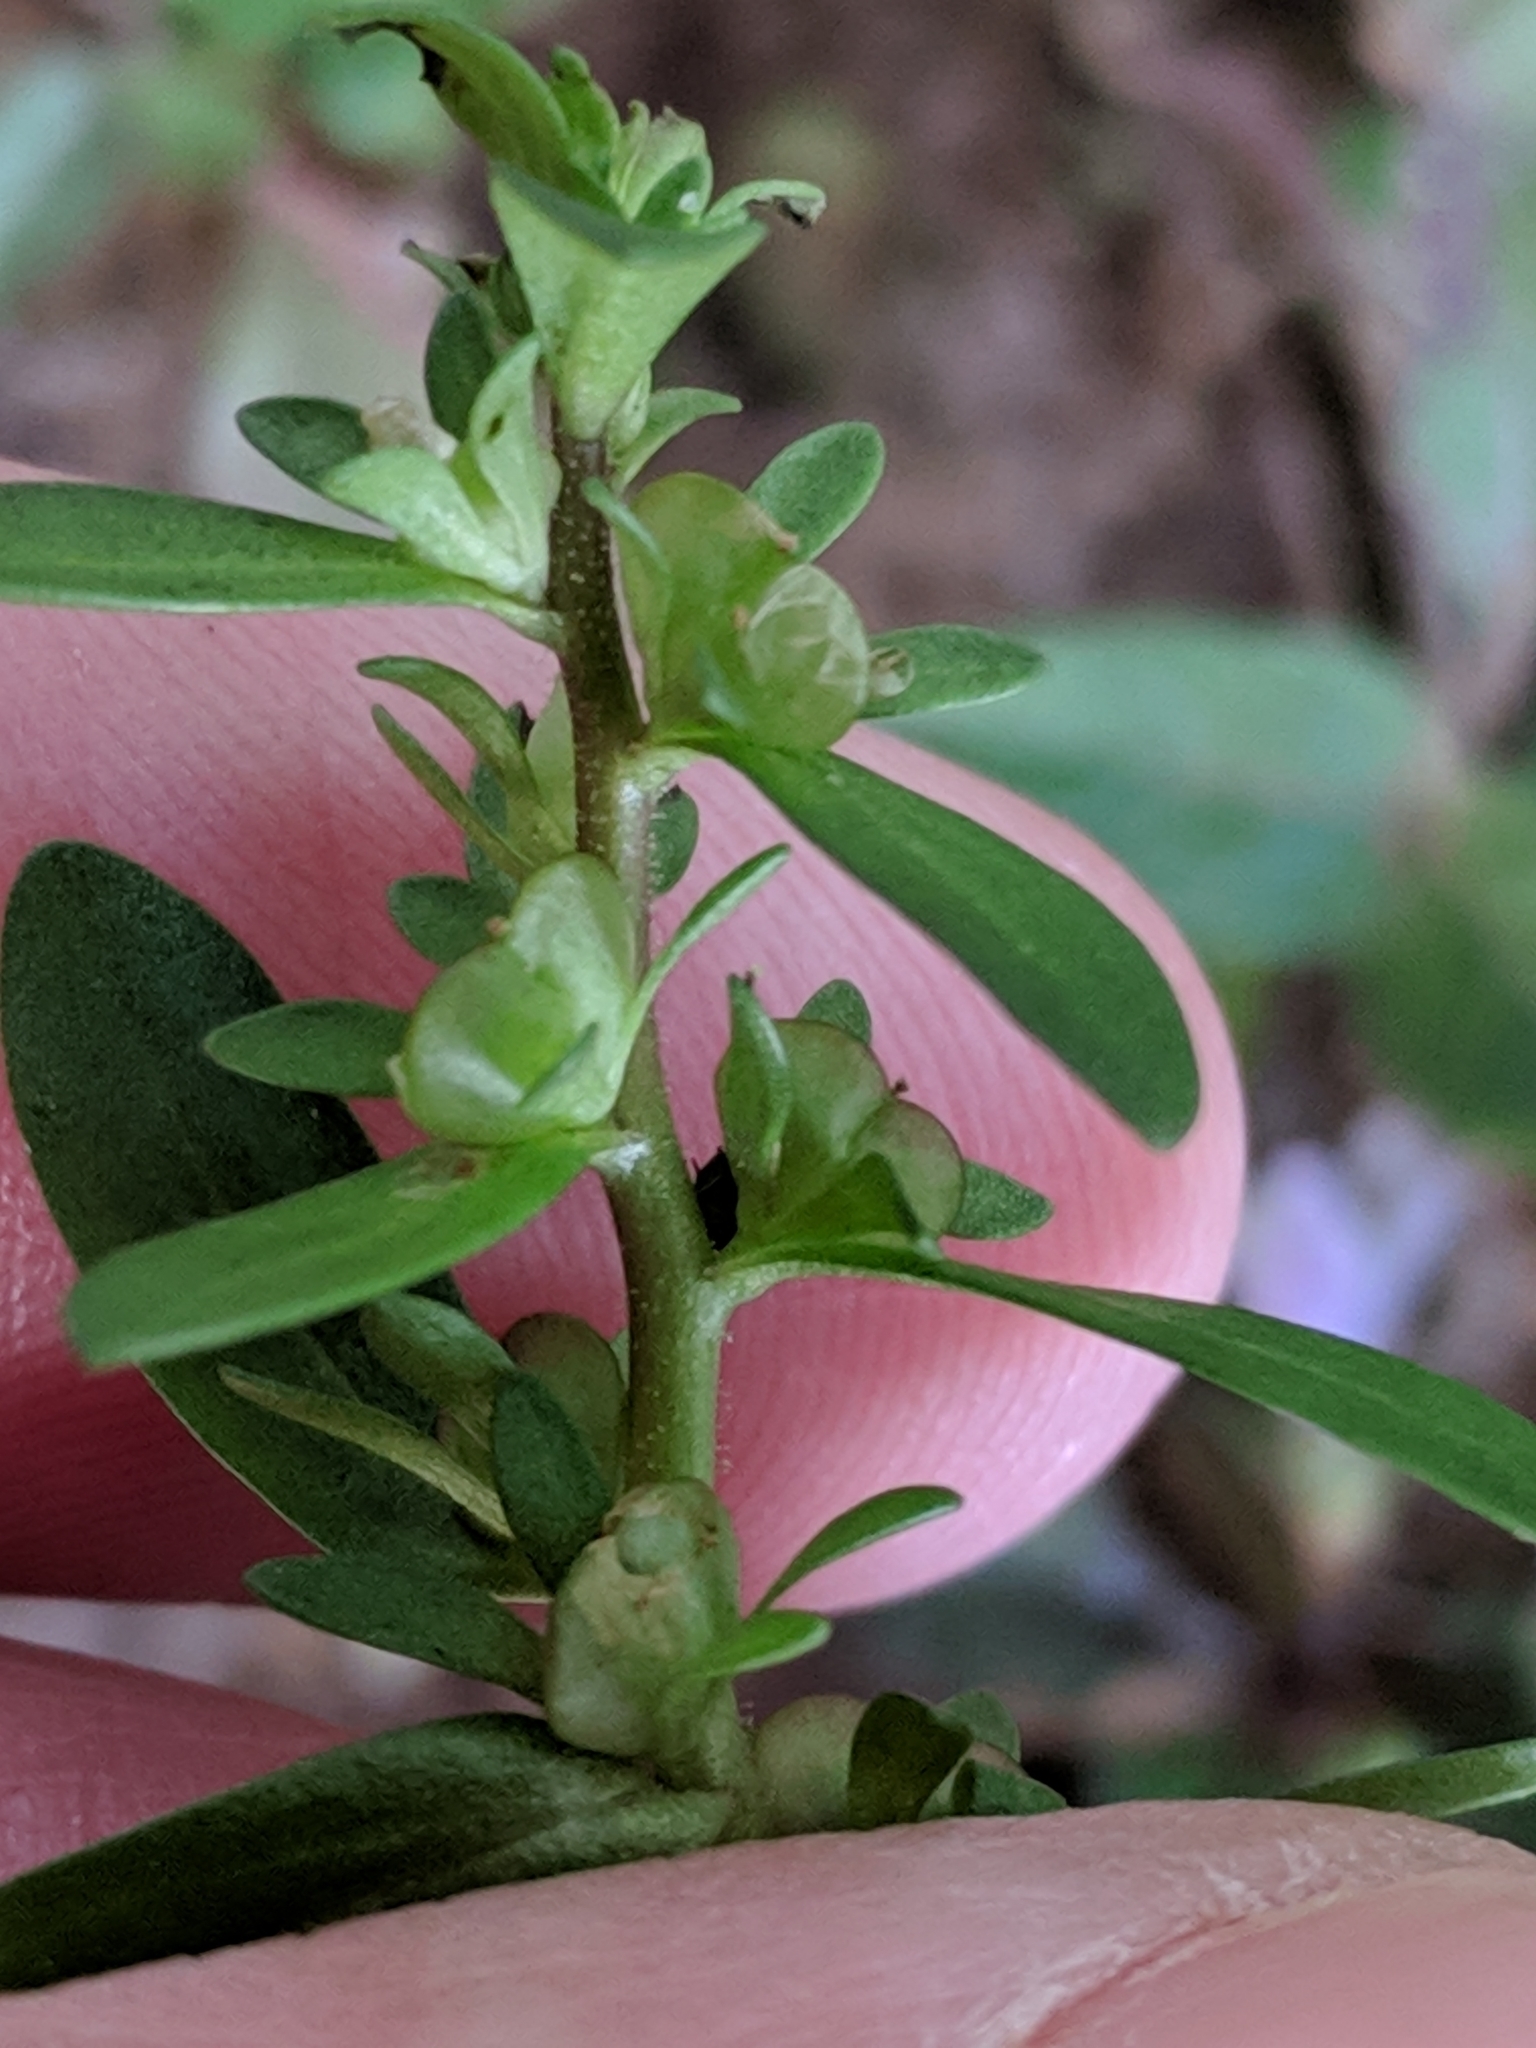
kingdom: Plantae
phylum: Tracheophyta
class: Magnoliopsida
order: Lamiales
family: Plantaginaceae
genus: Veronica
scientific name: Veronica peregrina
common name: Neckweed
